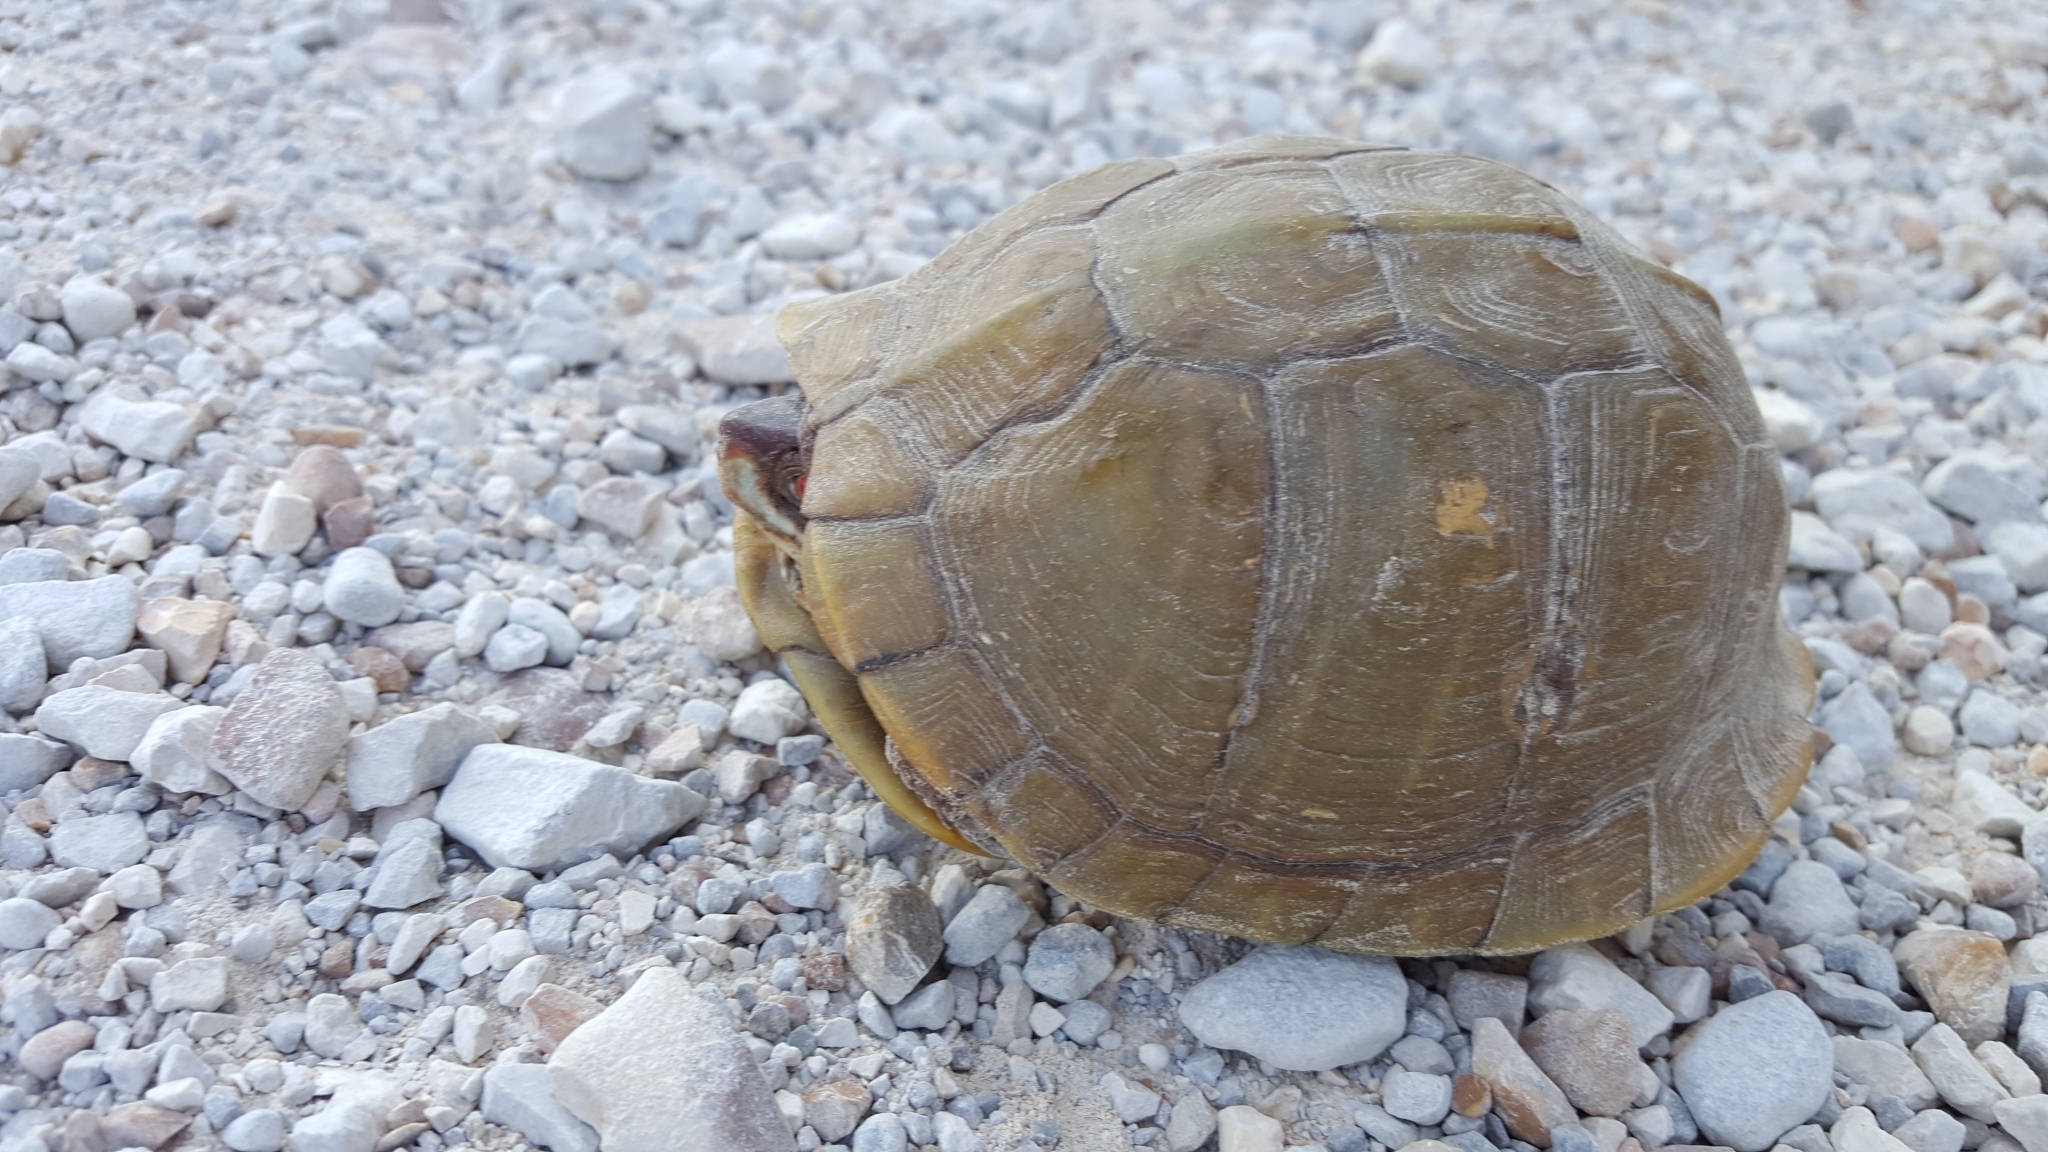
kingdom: Animalia
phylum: Chordata
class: Testudines
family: Emydidae
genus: Terrapene
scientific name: Terrapene carolina
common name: Common box turtle
